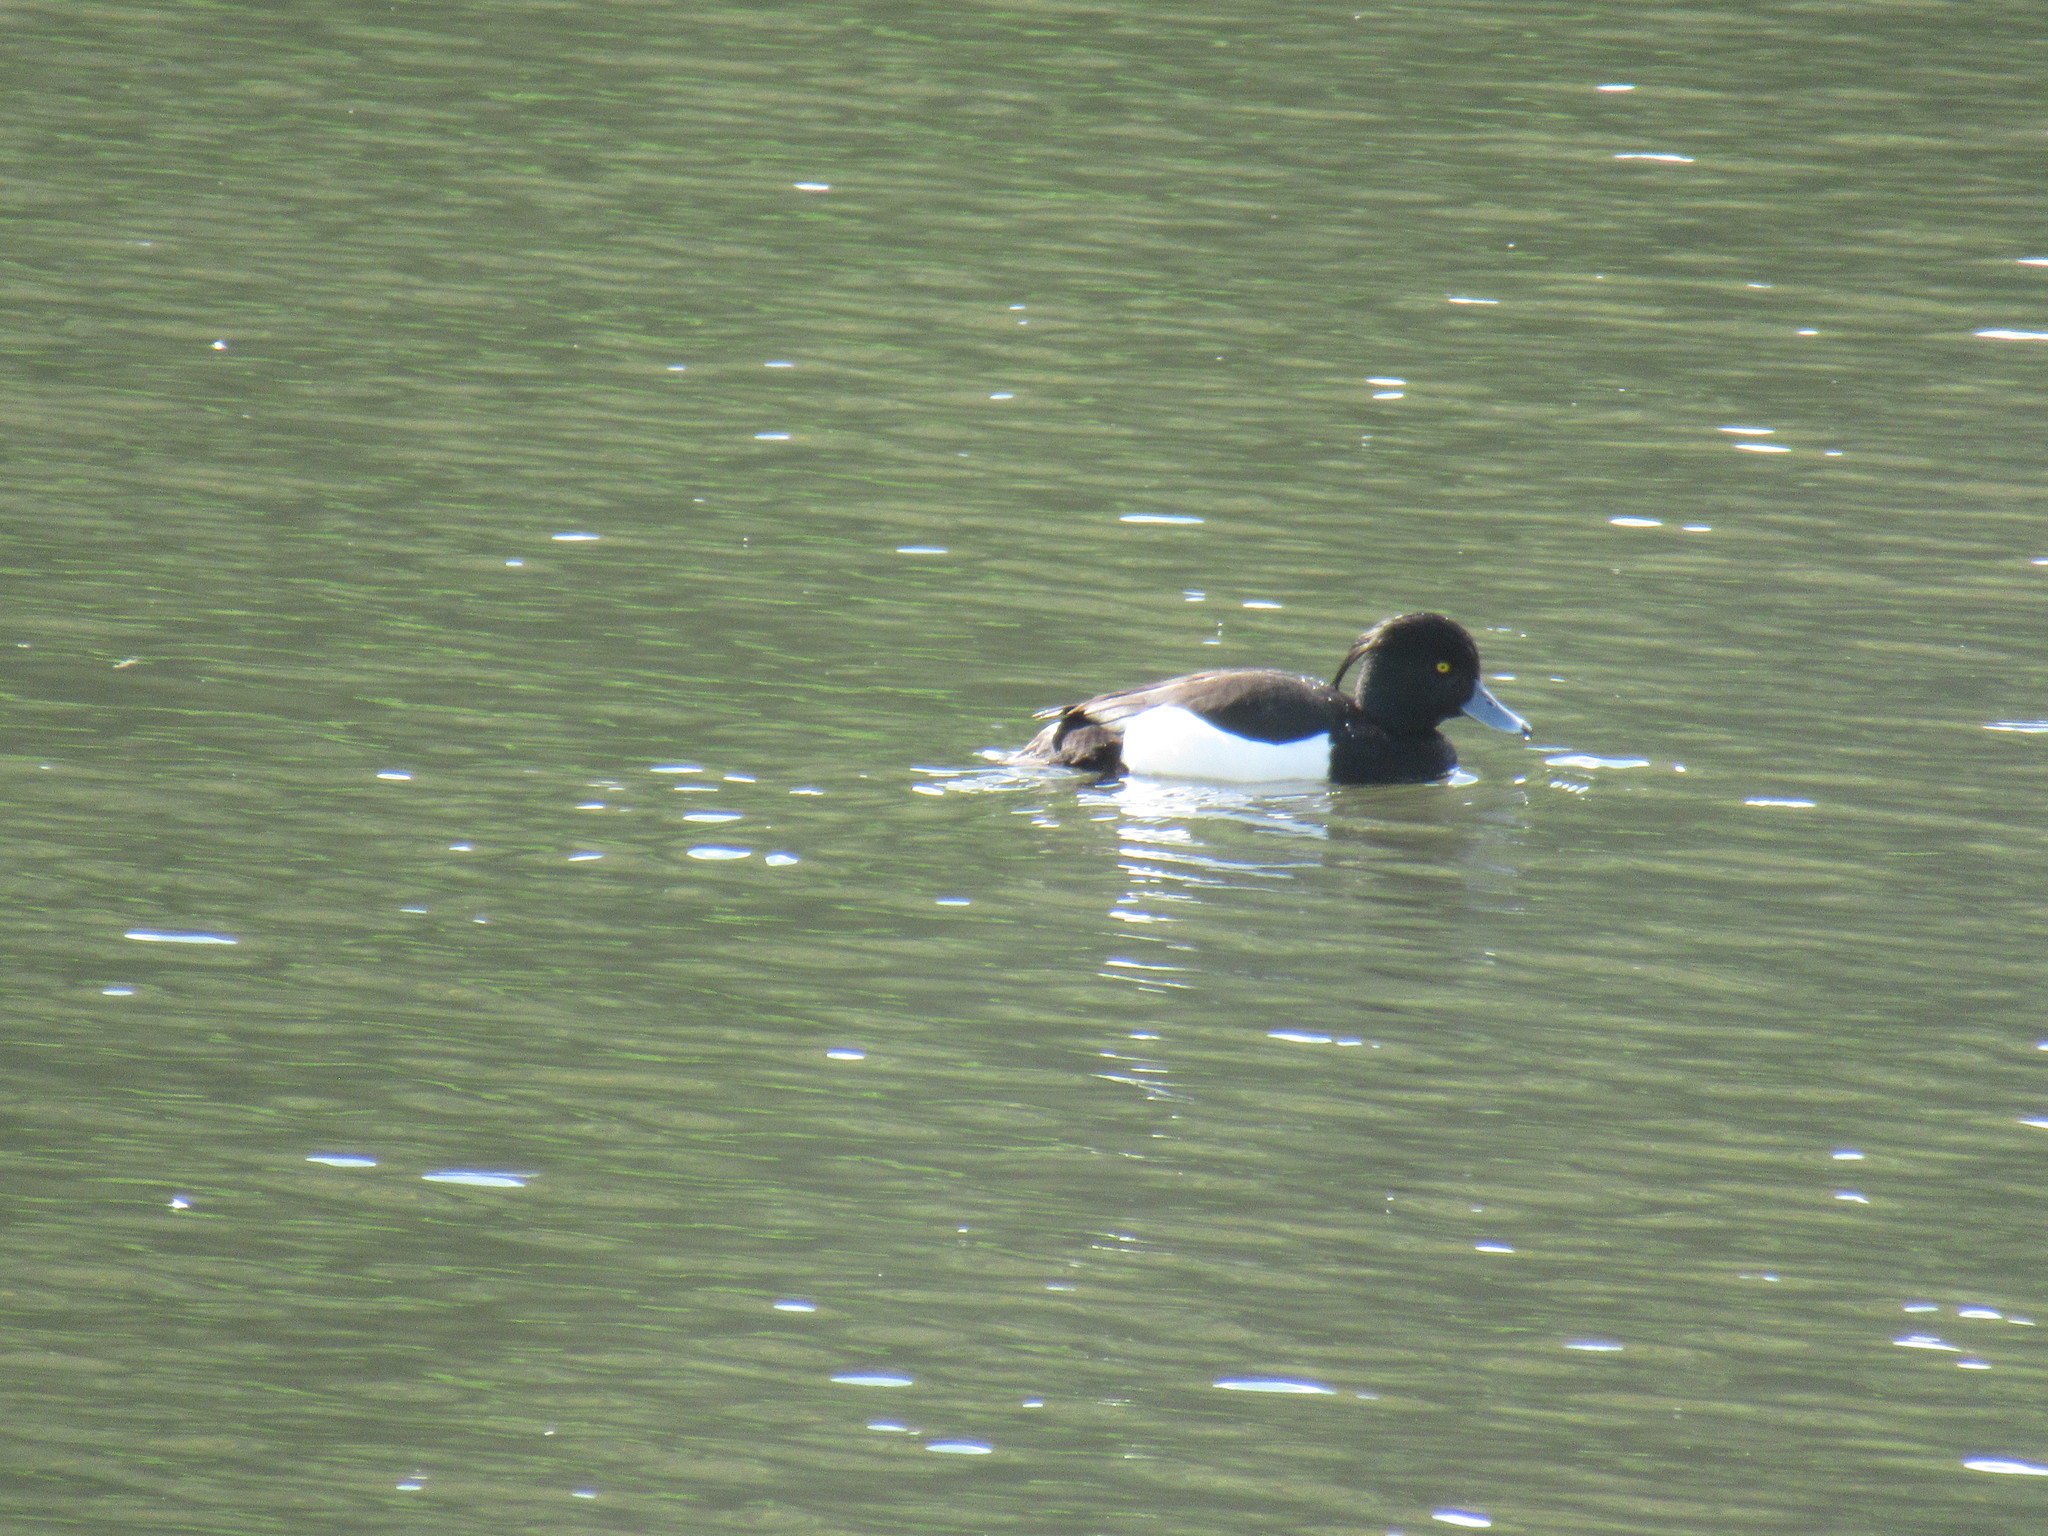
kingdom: Animalia
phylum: Chordata
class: Aves
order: Anseriformes
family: Anatidae
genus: Aythya
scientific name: Aythya fuligula
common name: Tufted duck
